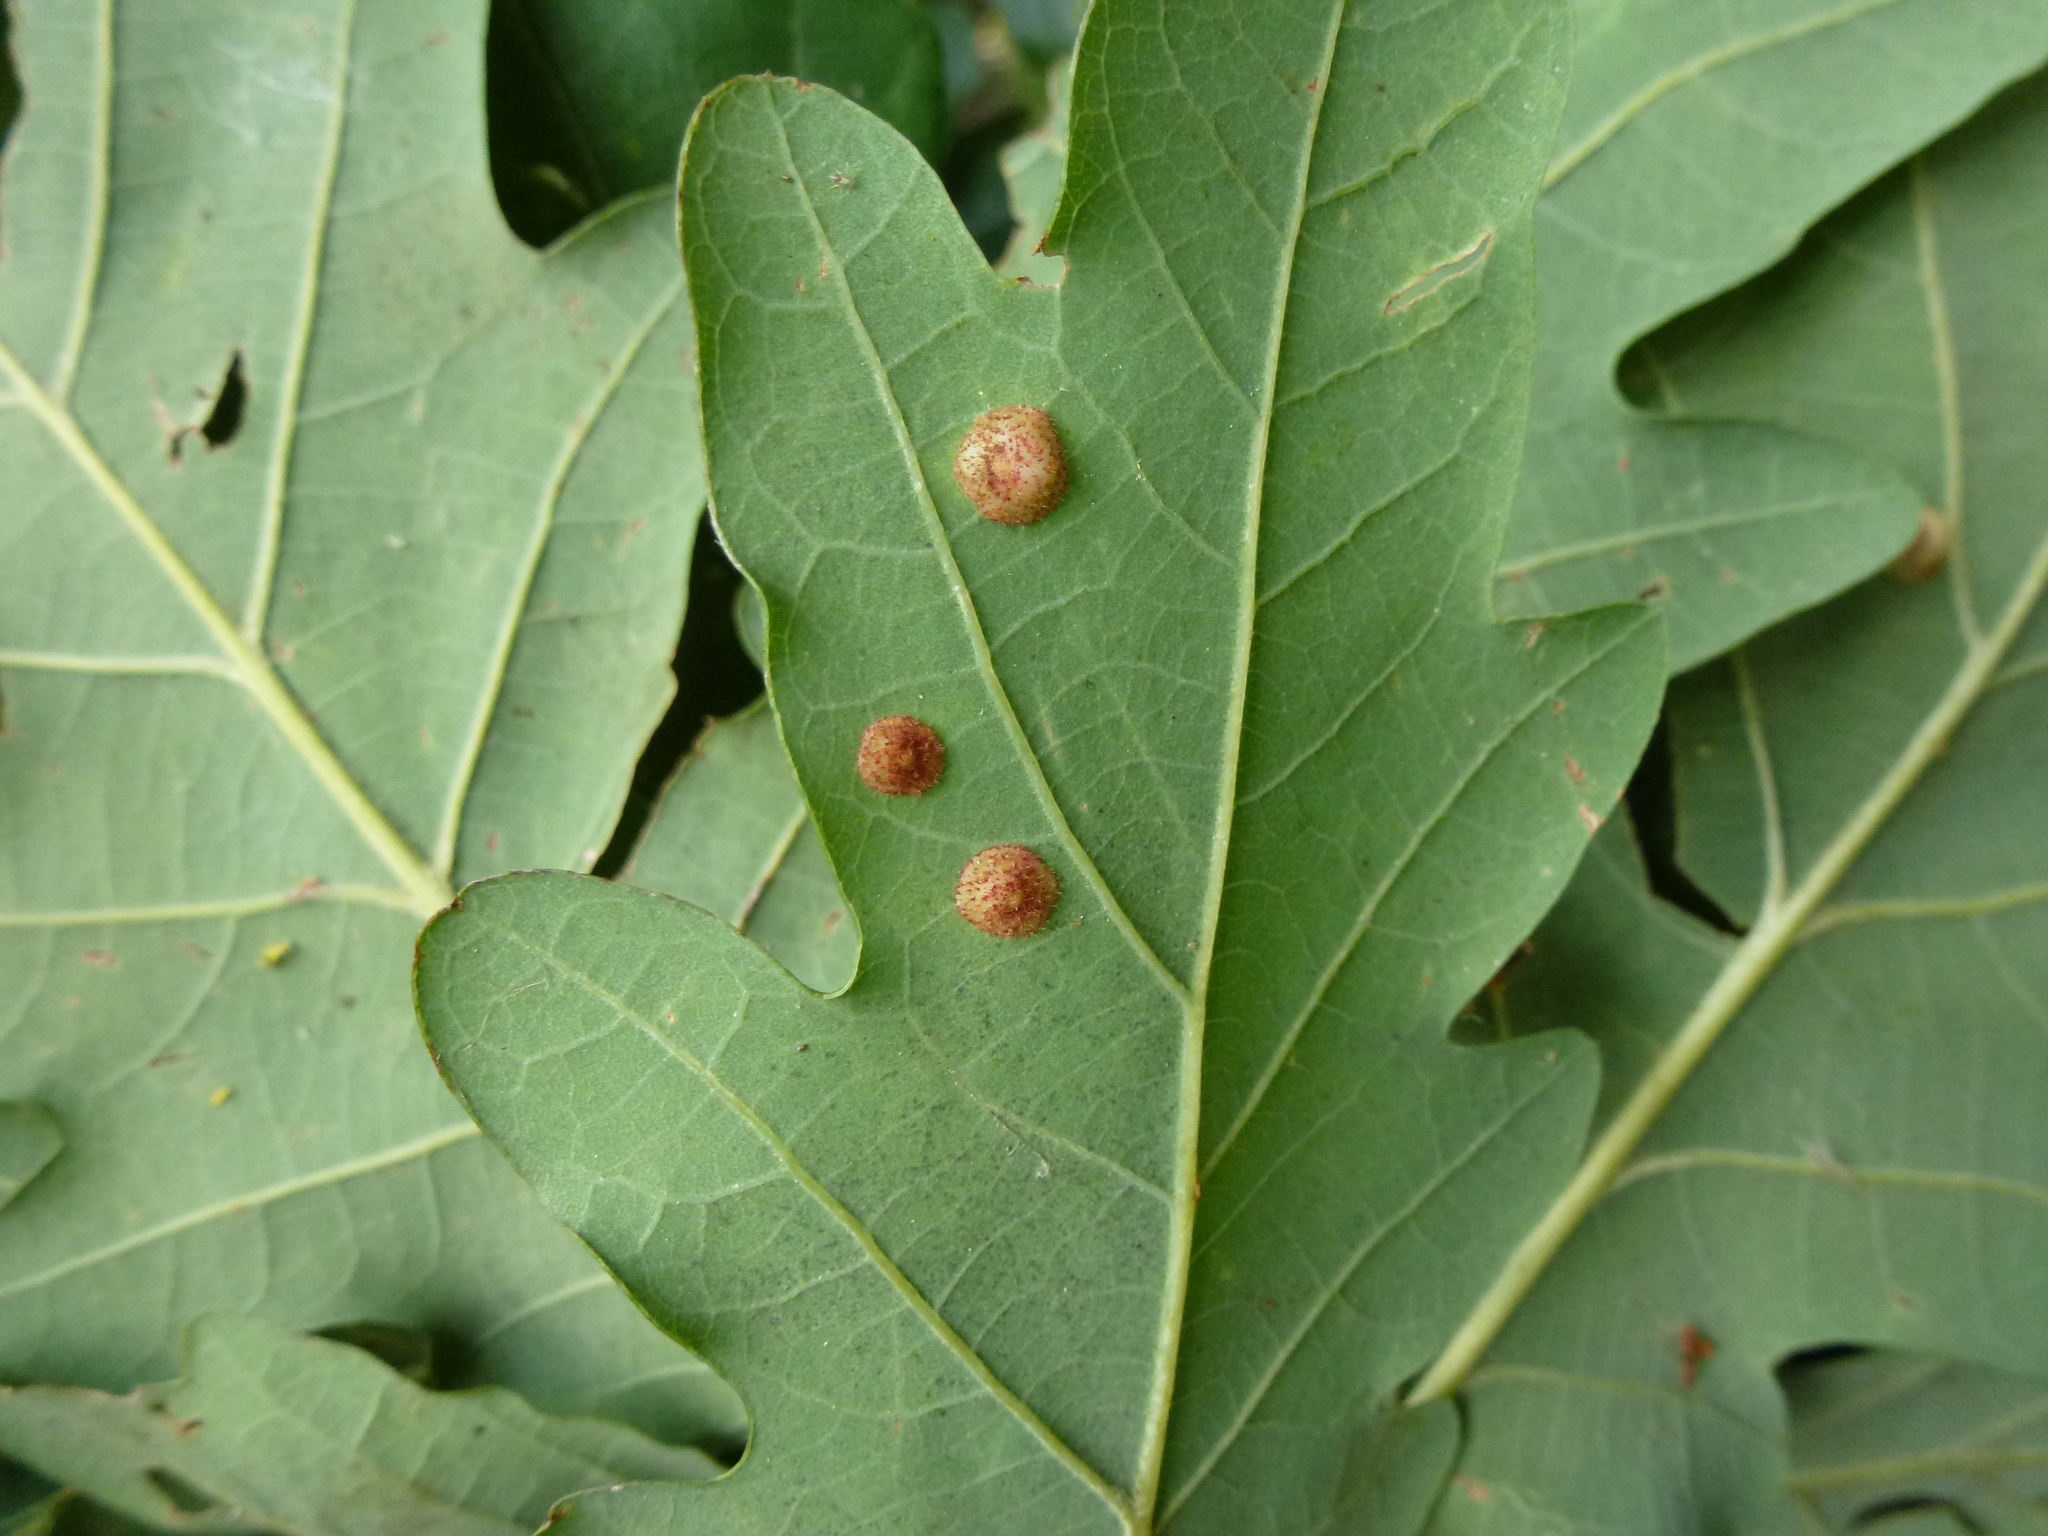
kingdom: Animalia
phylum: Arthropoda
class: Insecta
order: Hymenoptera
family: Cynipidae
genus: Neuroterus
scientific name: Neuroterus quercusbaccarum
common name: Common spangle gall
